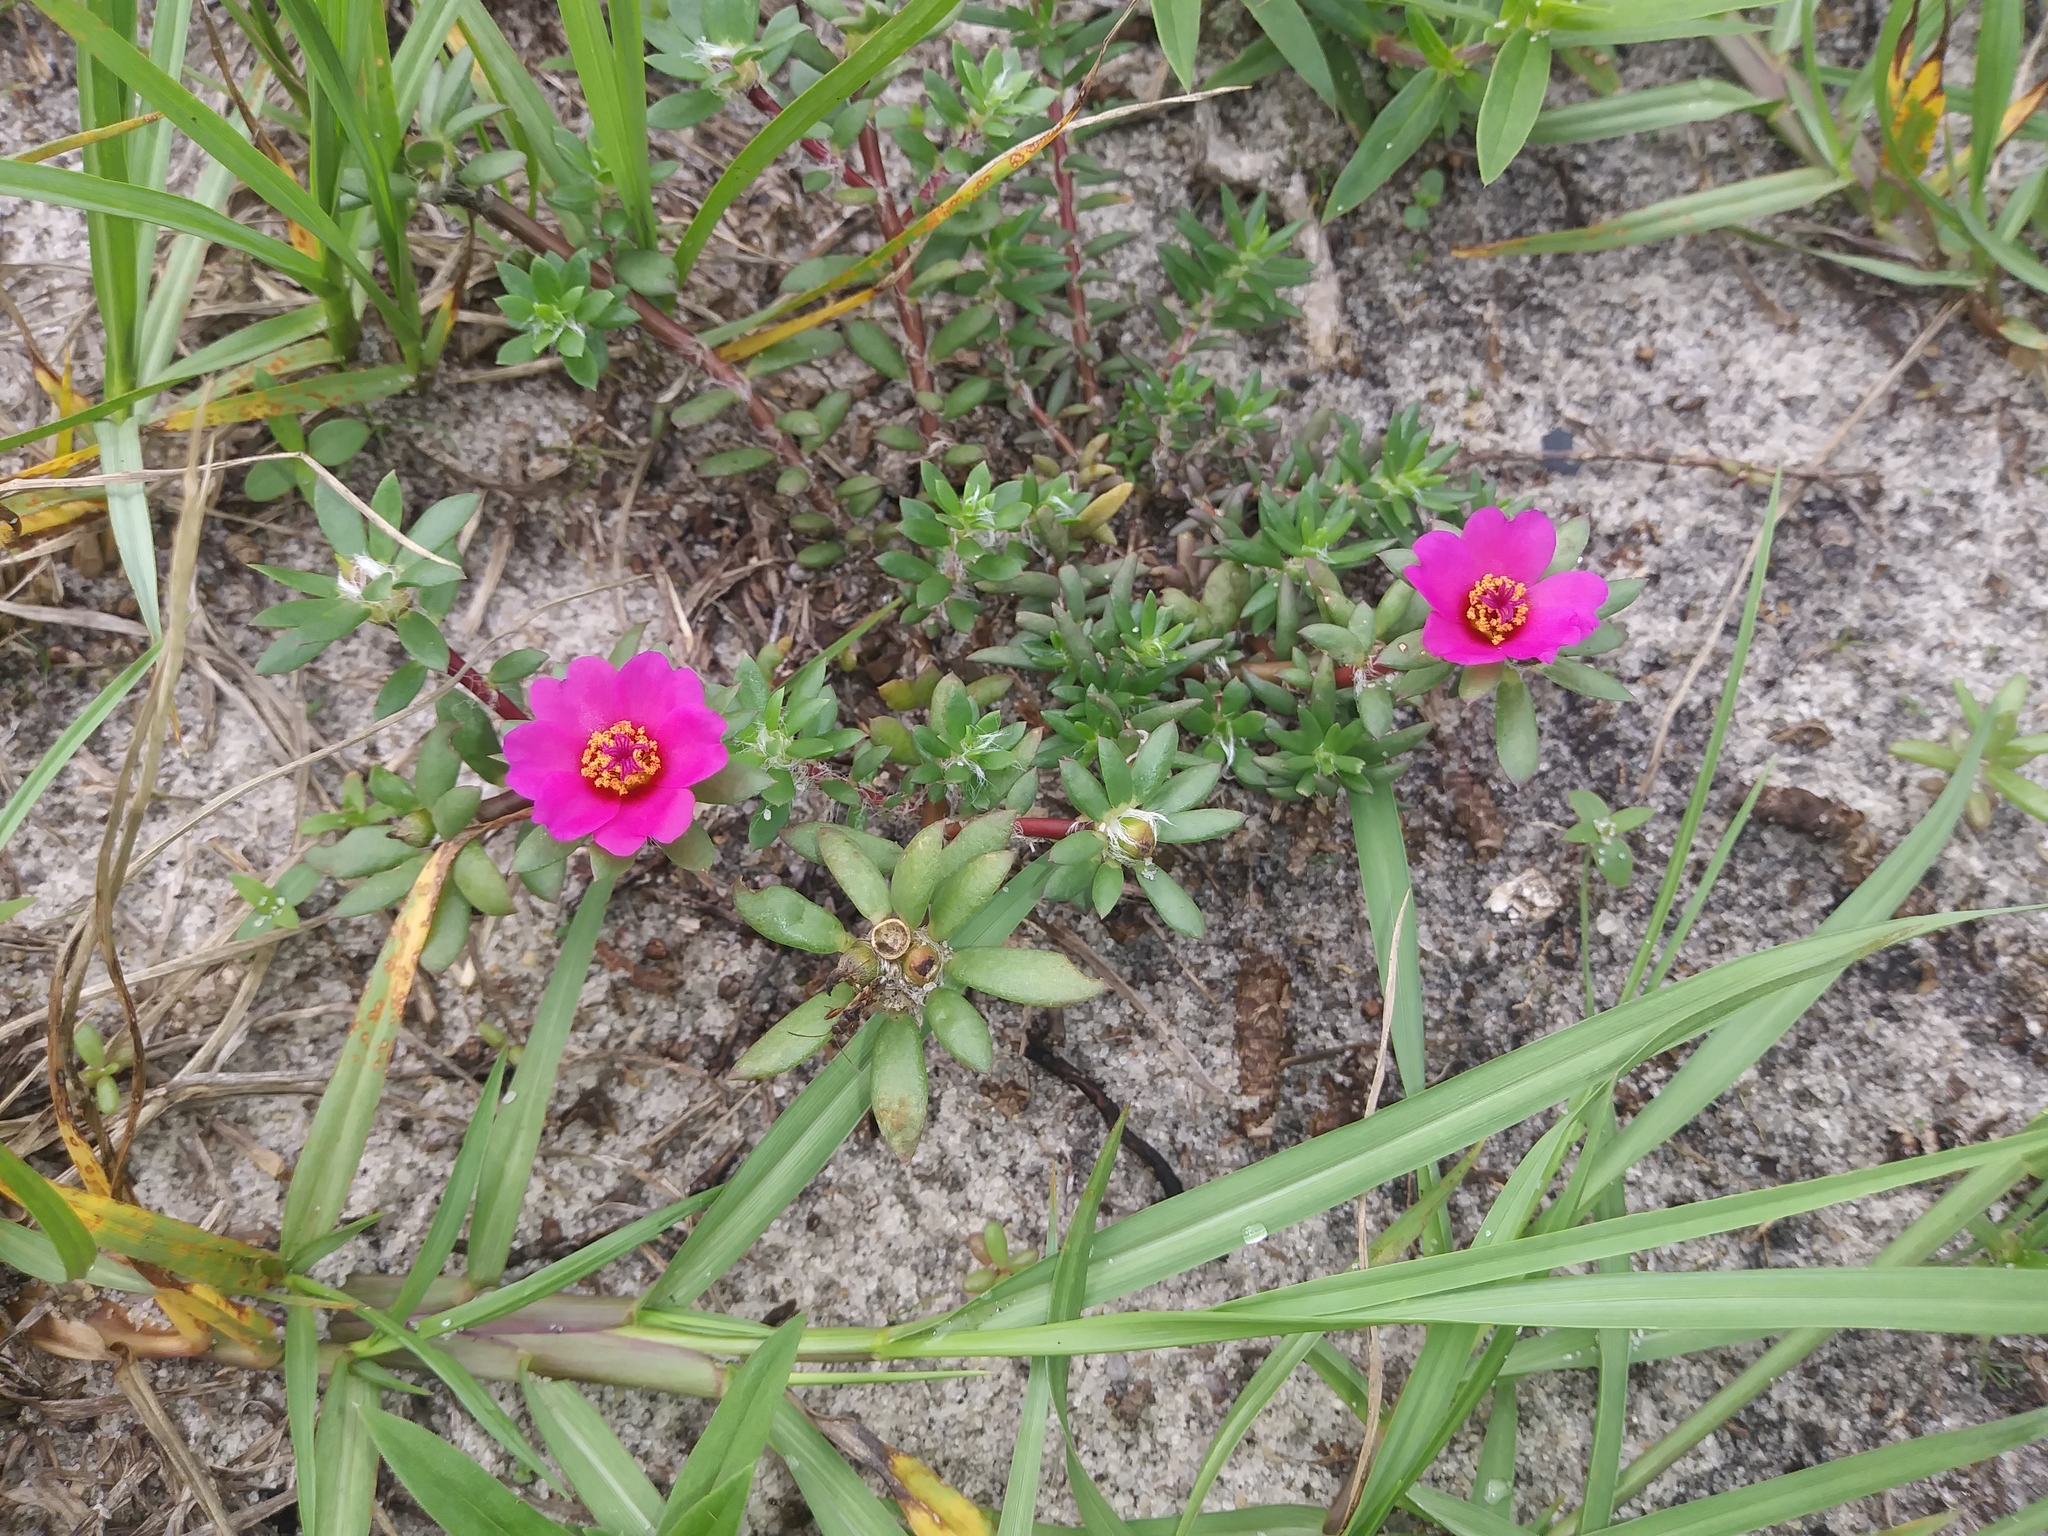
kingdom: Plantae
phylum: Tracheophyta
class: Magnoliopsida
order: Caryophyllales
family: Portulacaceae
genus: Portulaca
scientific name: Portulaca amilis
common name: Paraguayan purslane
